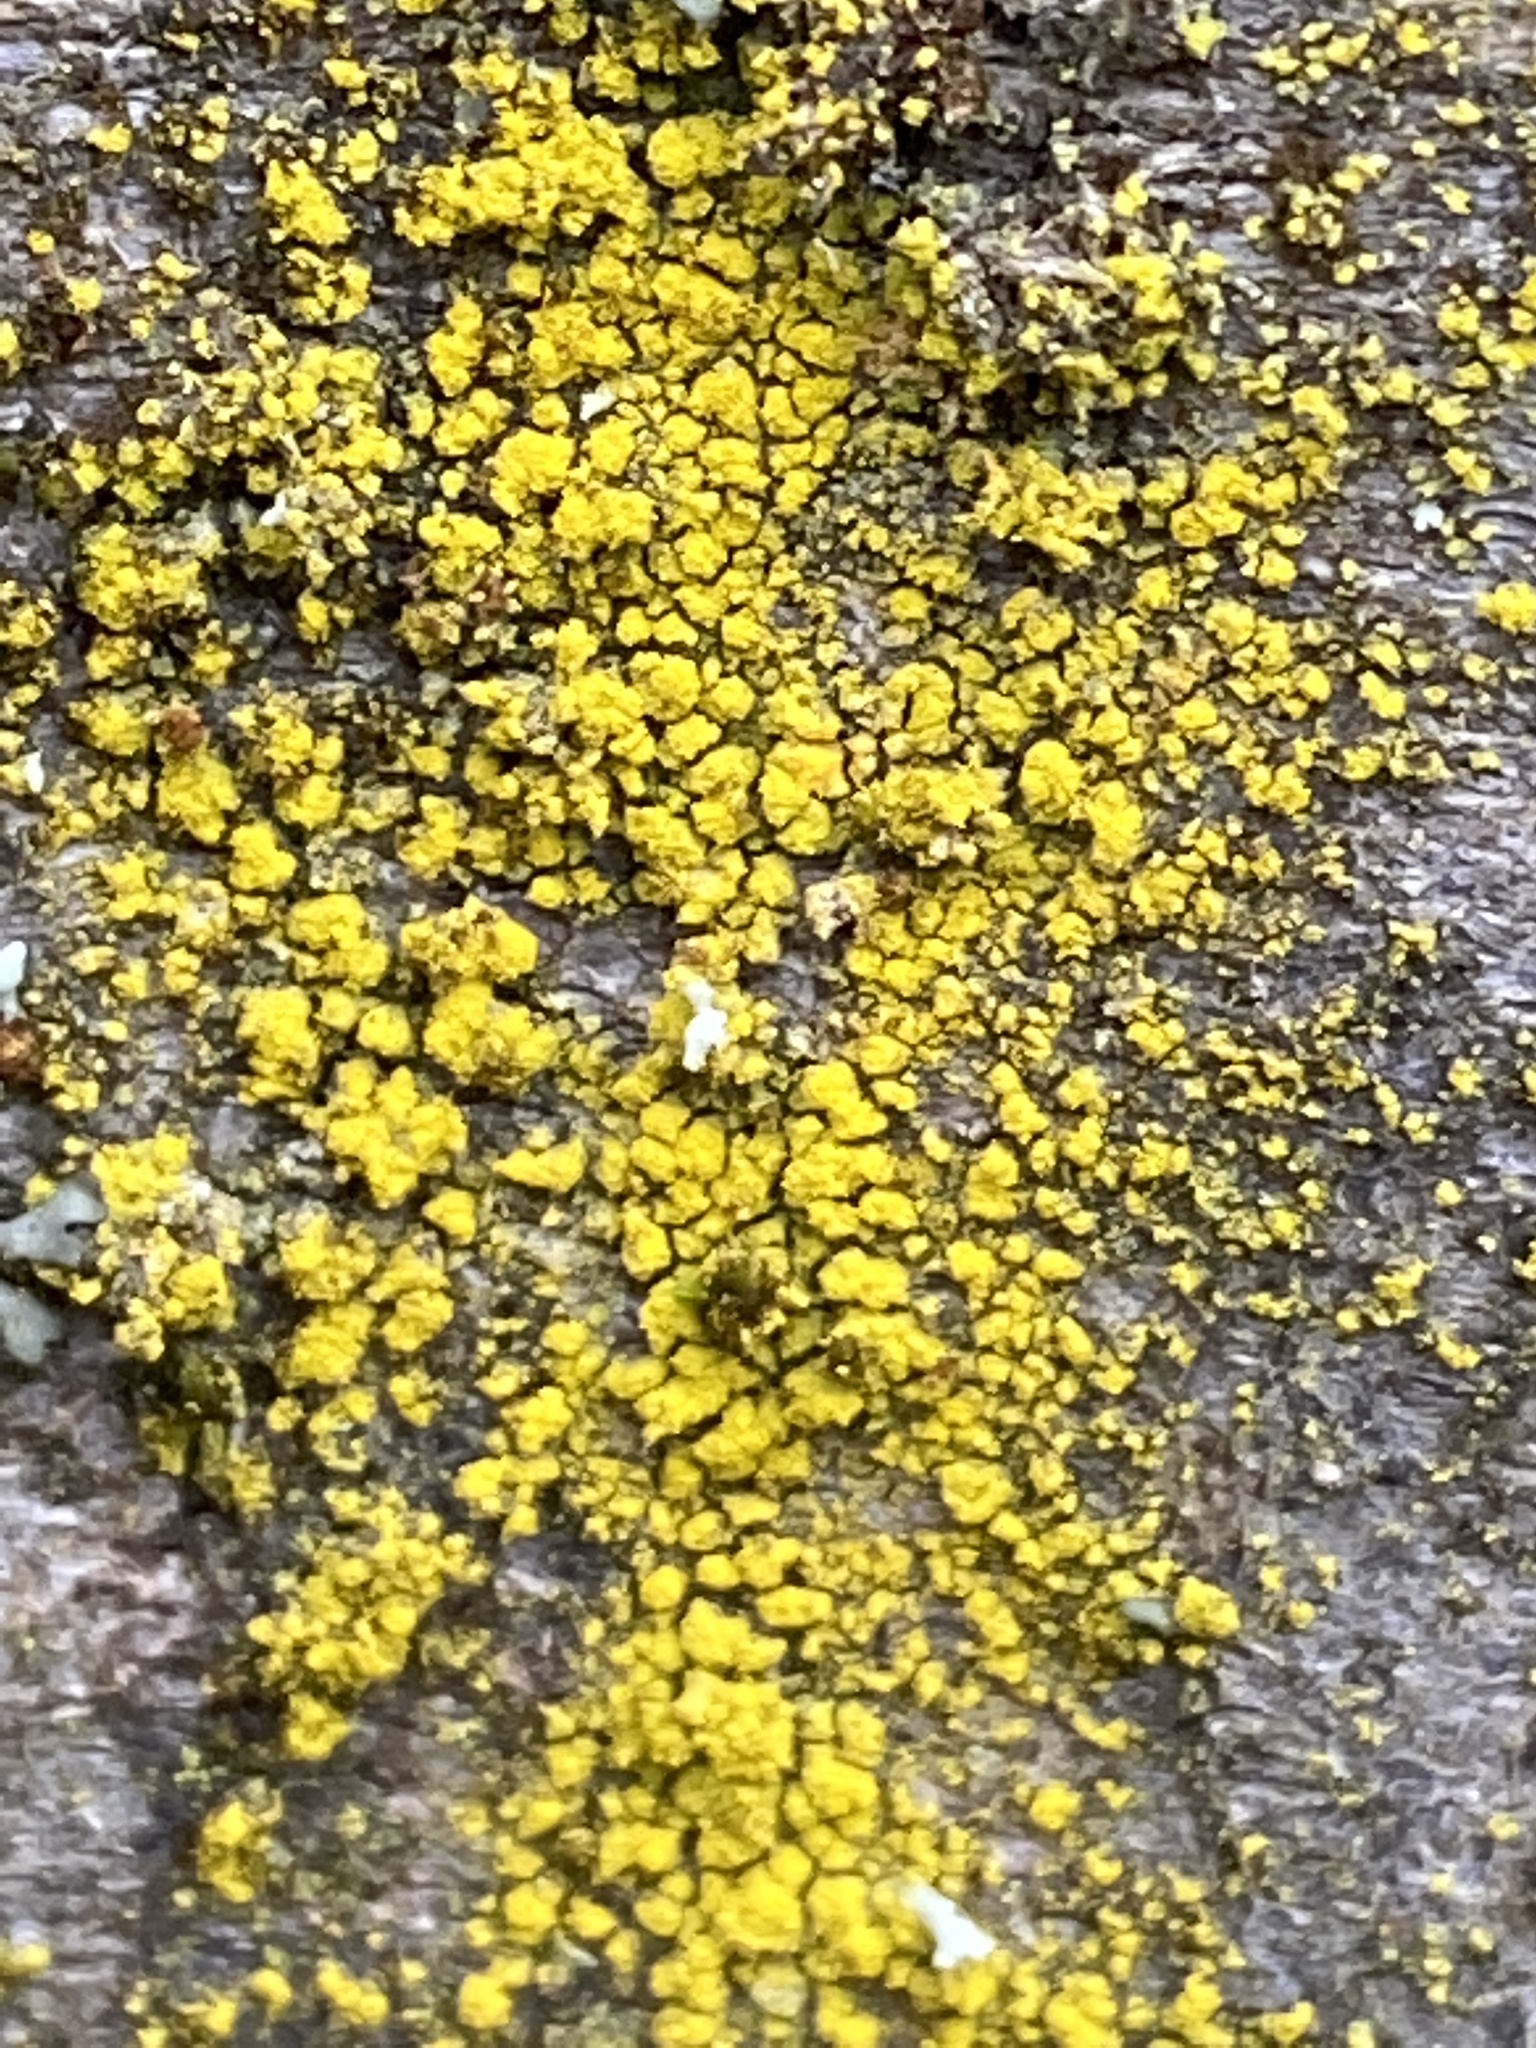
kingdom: Fungi
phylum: Ascomycota
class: Candelariomycetes
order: Candelariales
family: Candelariaceae
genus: Candelariella
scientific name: Candelariella vitellina
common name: Common goldspeck
